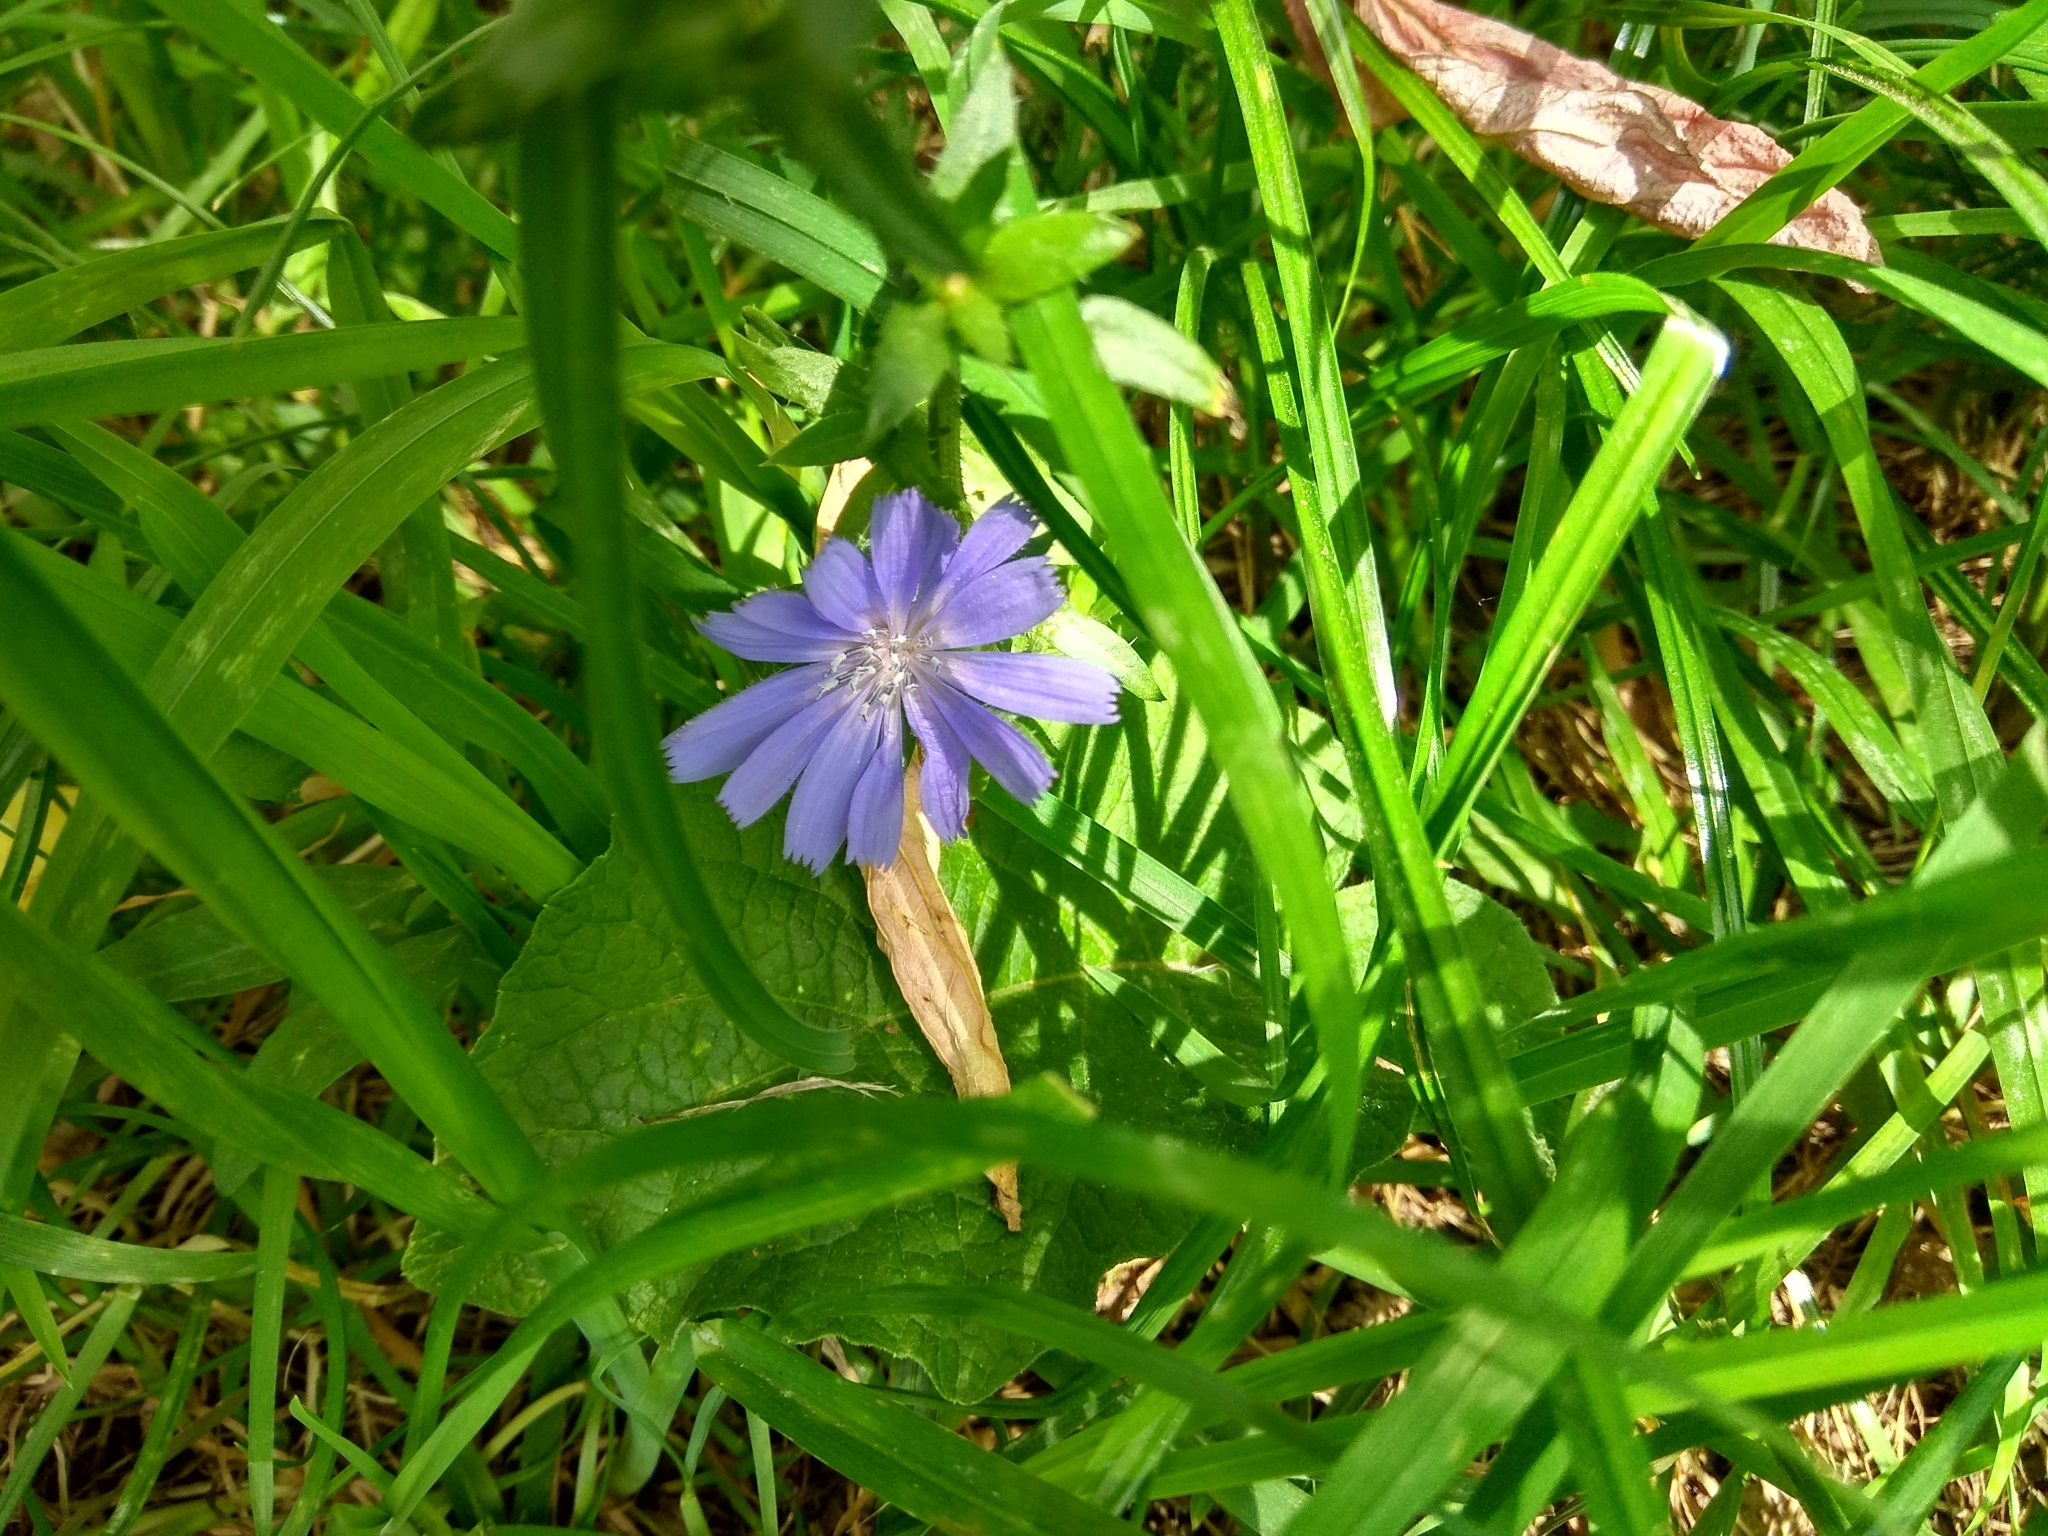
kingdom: Plantae
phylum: Tracheophyta
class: Magnoliopsida
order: Asterales
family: Asteraceae
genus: Cichorium
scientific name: Cichorium intybus
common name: Chicory
